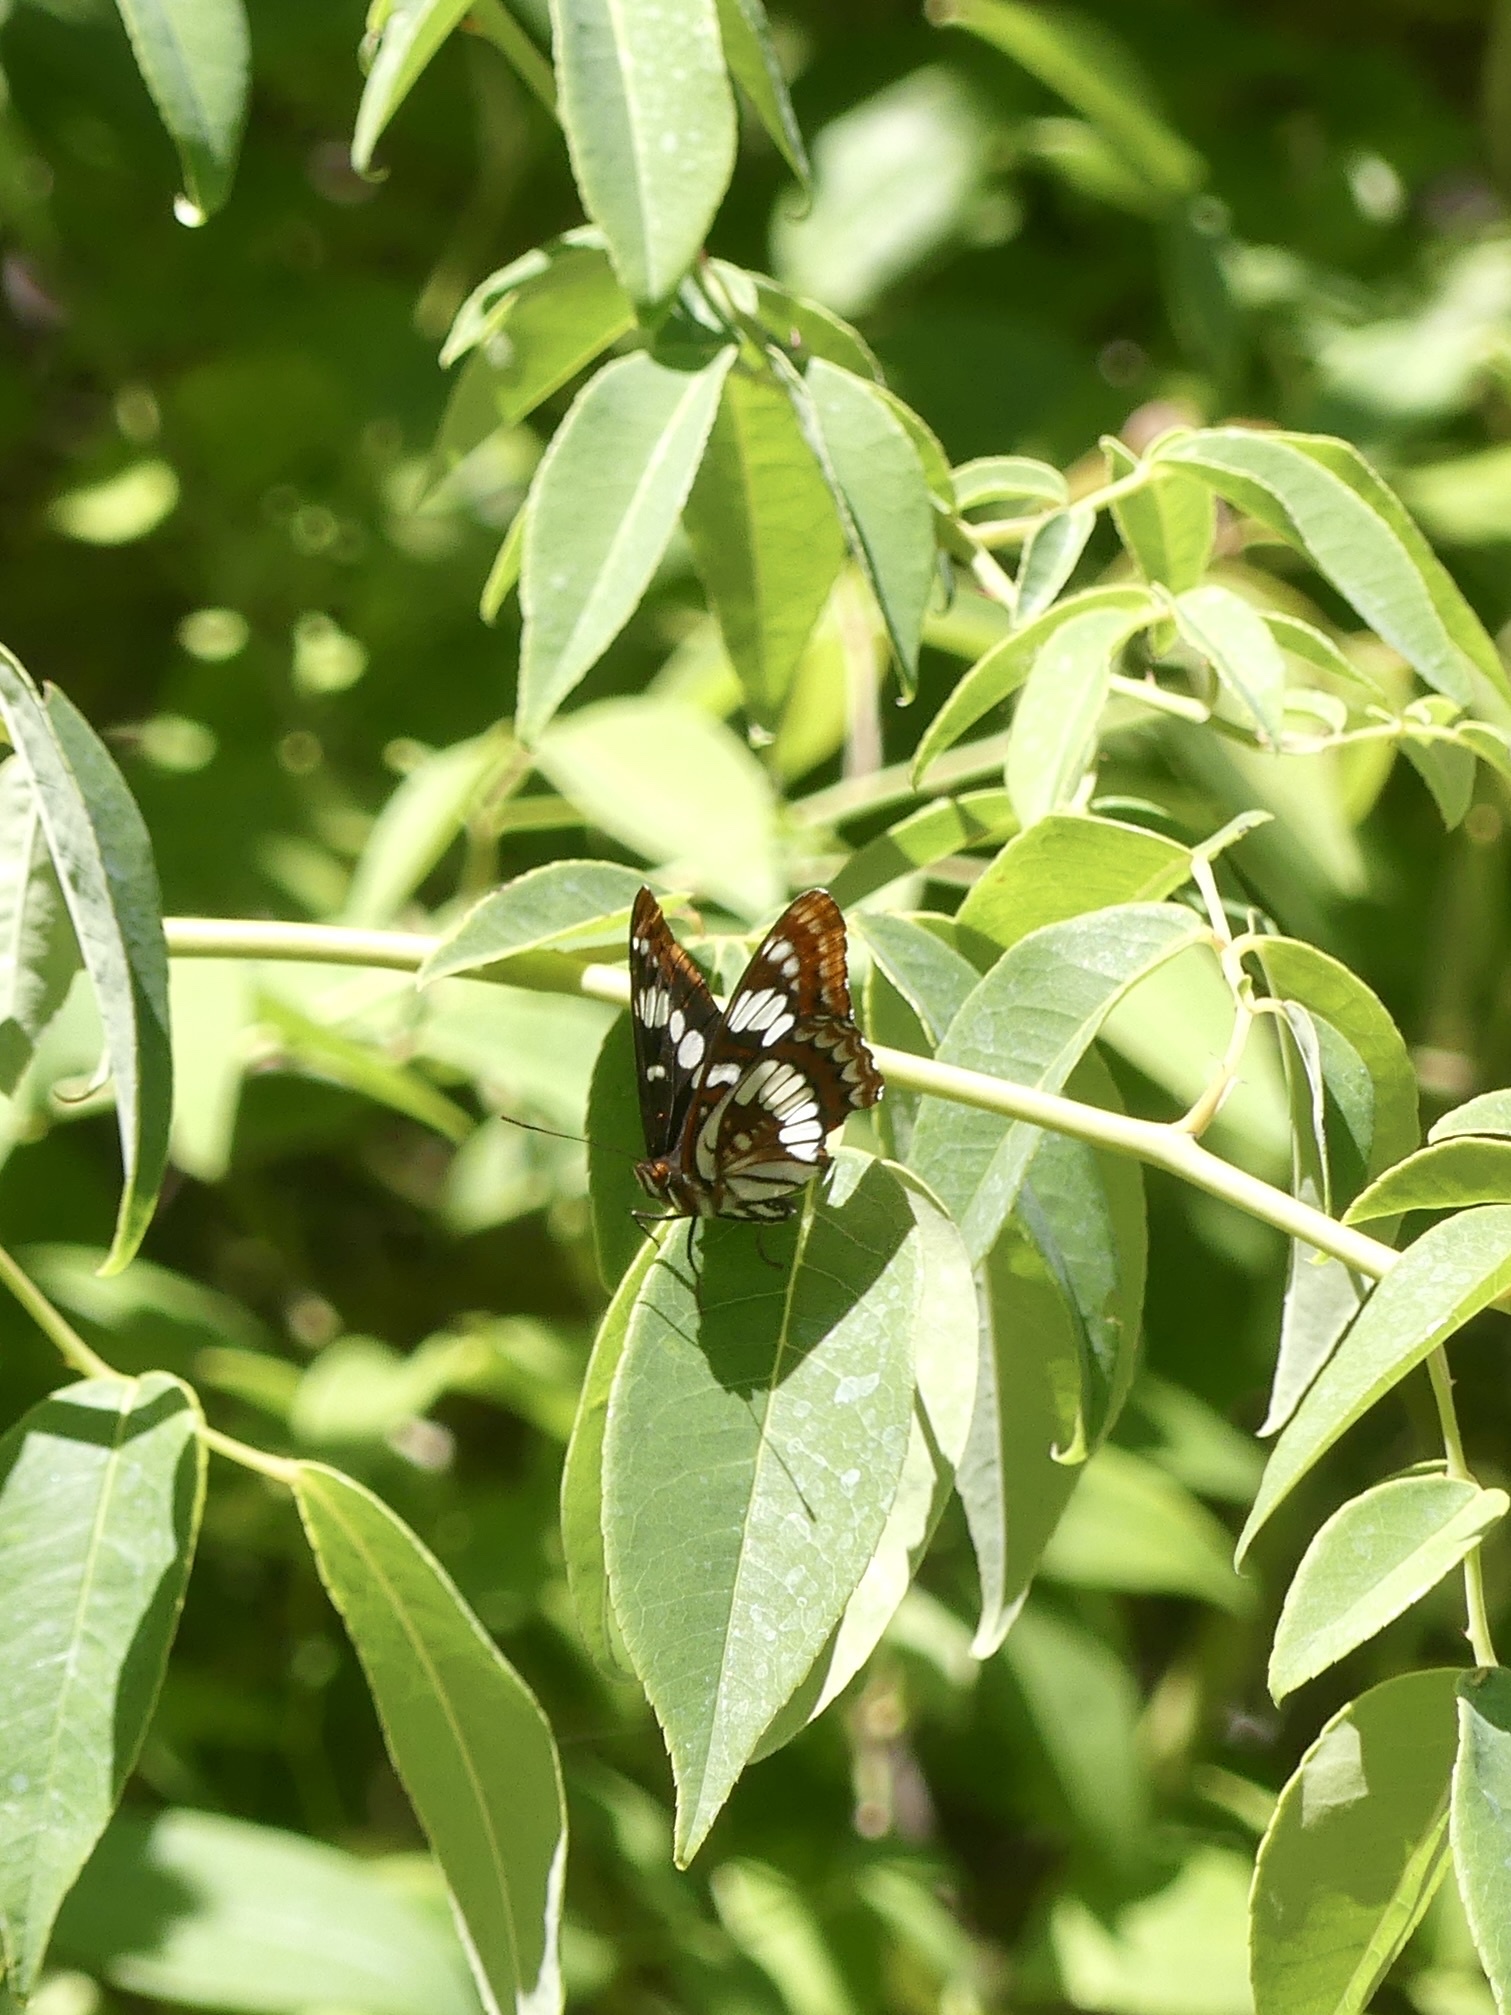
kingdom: Animalia
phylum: Arthropoda
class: Insecta
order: Lepidoptera
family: Nymphalidae
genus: Limenitis
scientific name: Limenitis lorquini
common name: Lorquin's admiral
